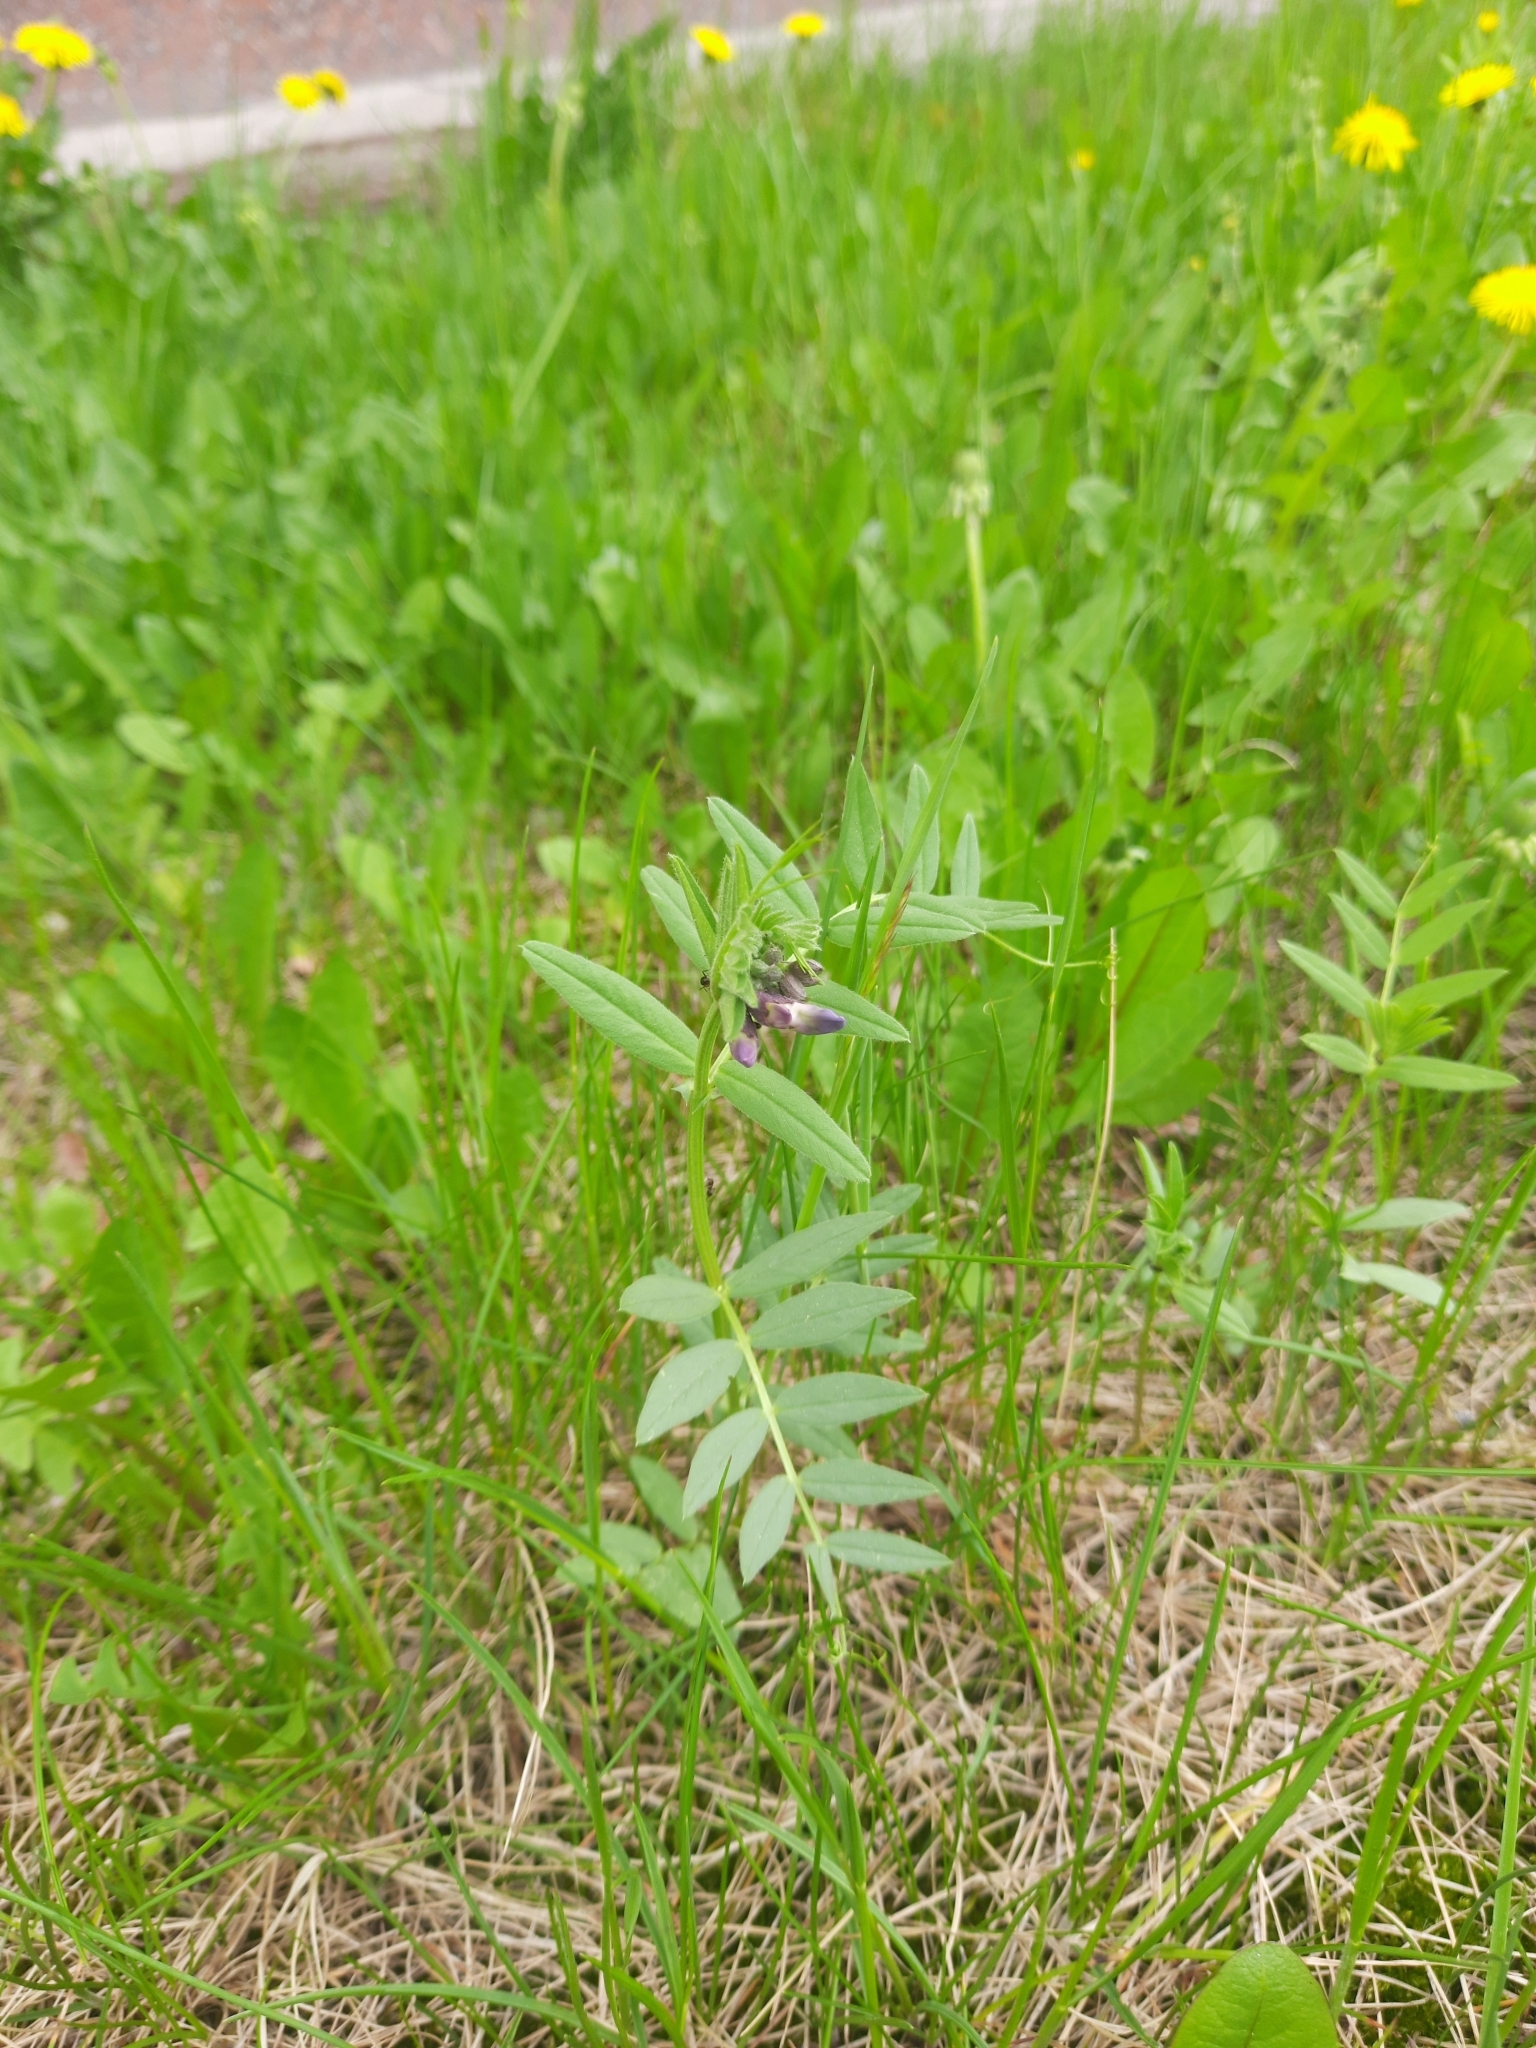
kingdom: Plantae
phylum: Tracheophyta
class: Magnoliopsida
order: Fabales
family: Fabaceae
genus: Vicia
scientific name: Vicia sepium
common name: Bush vetch
